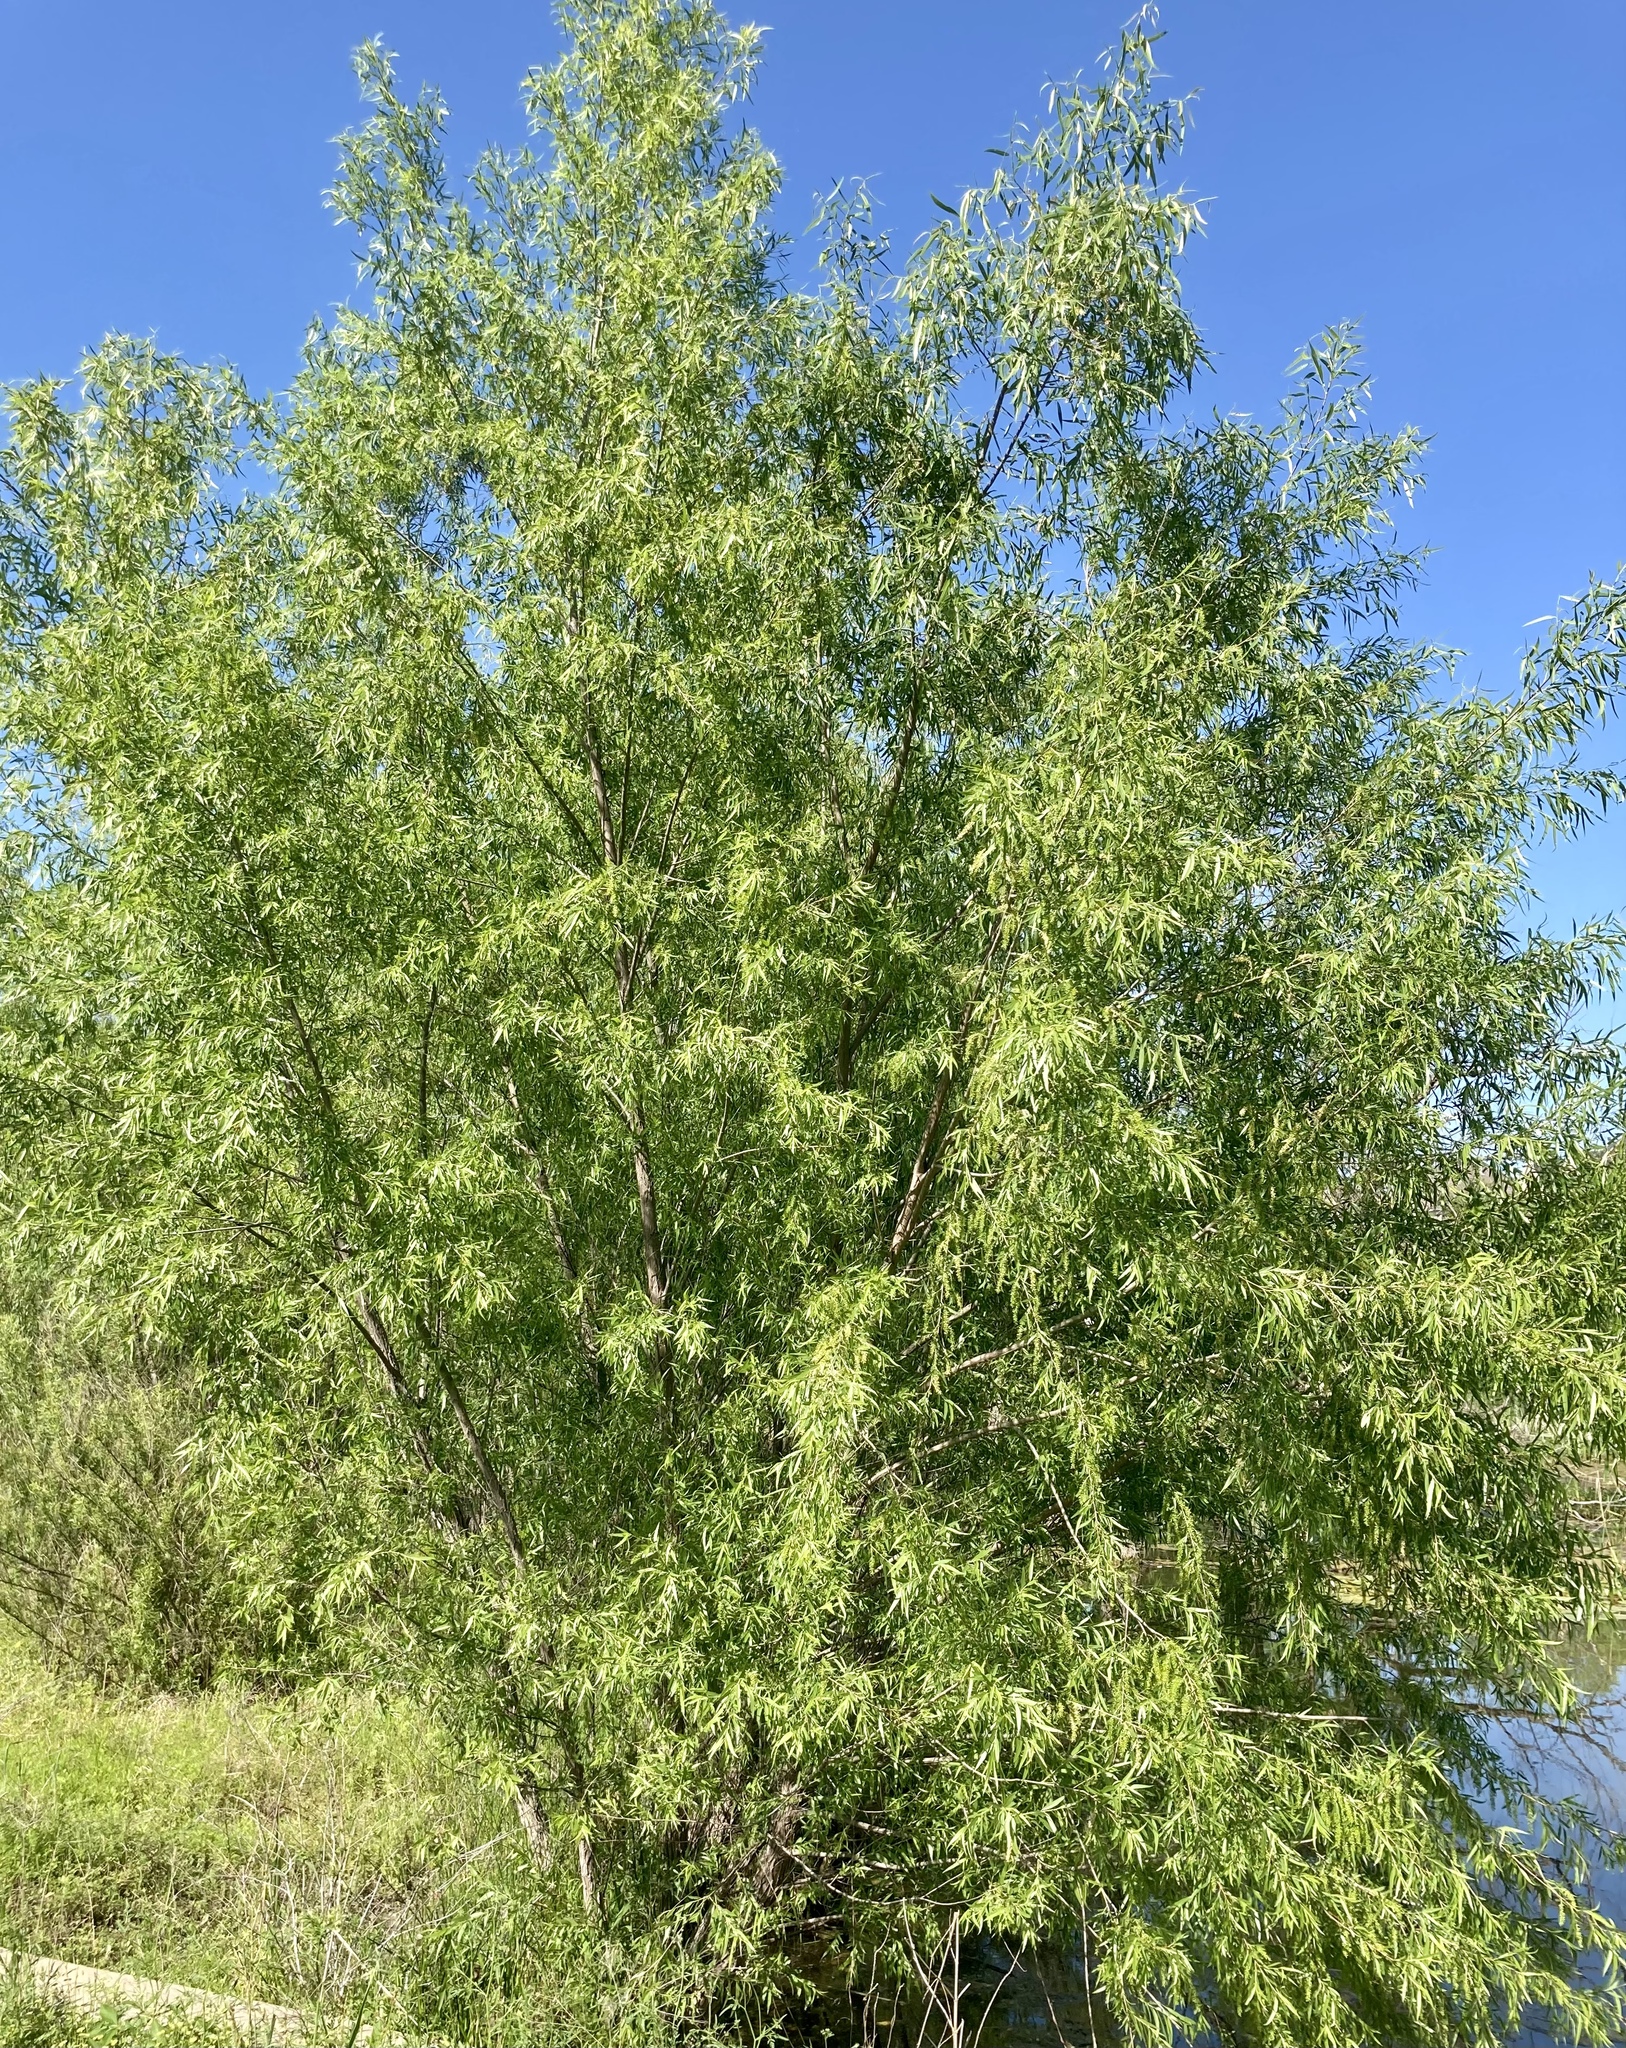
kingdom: Plantae
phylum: Tracheophyta
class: Magnoliopsida
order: Malpighiales
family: Salicaceae
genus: Salix
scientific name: Salix nigra
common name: Black willow
